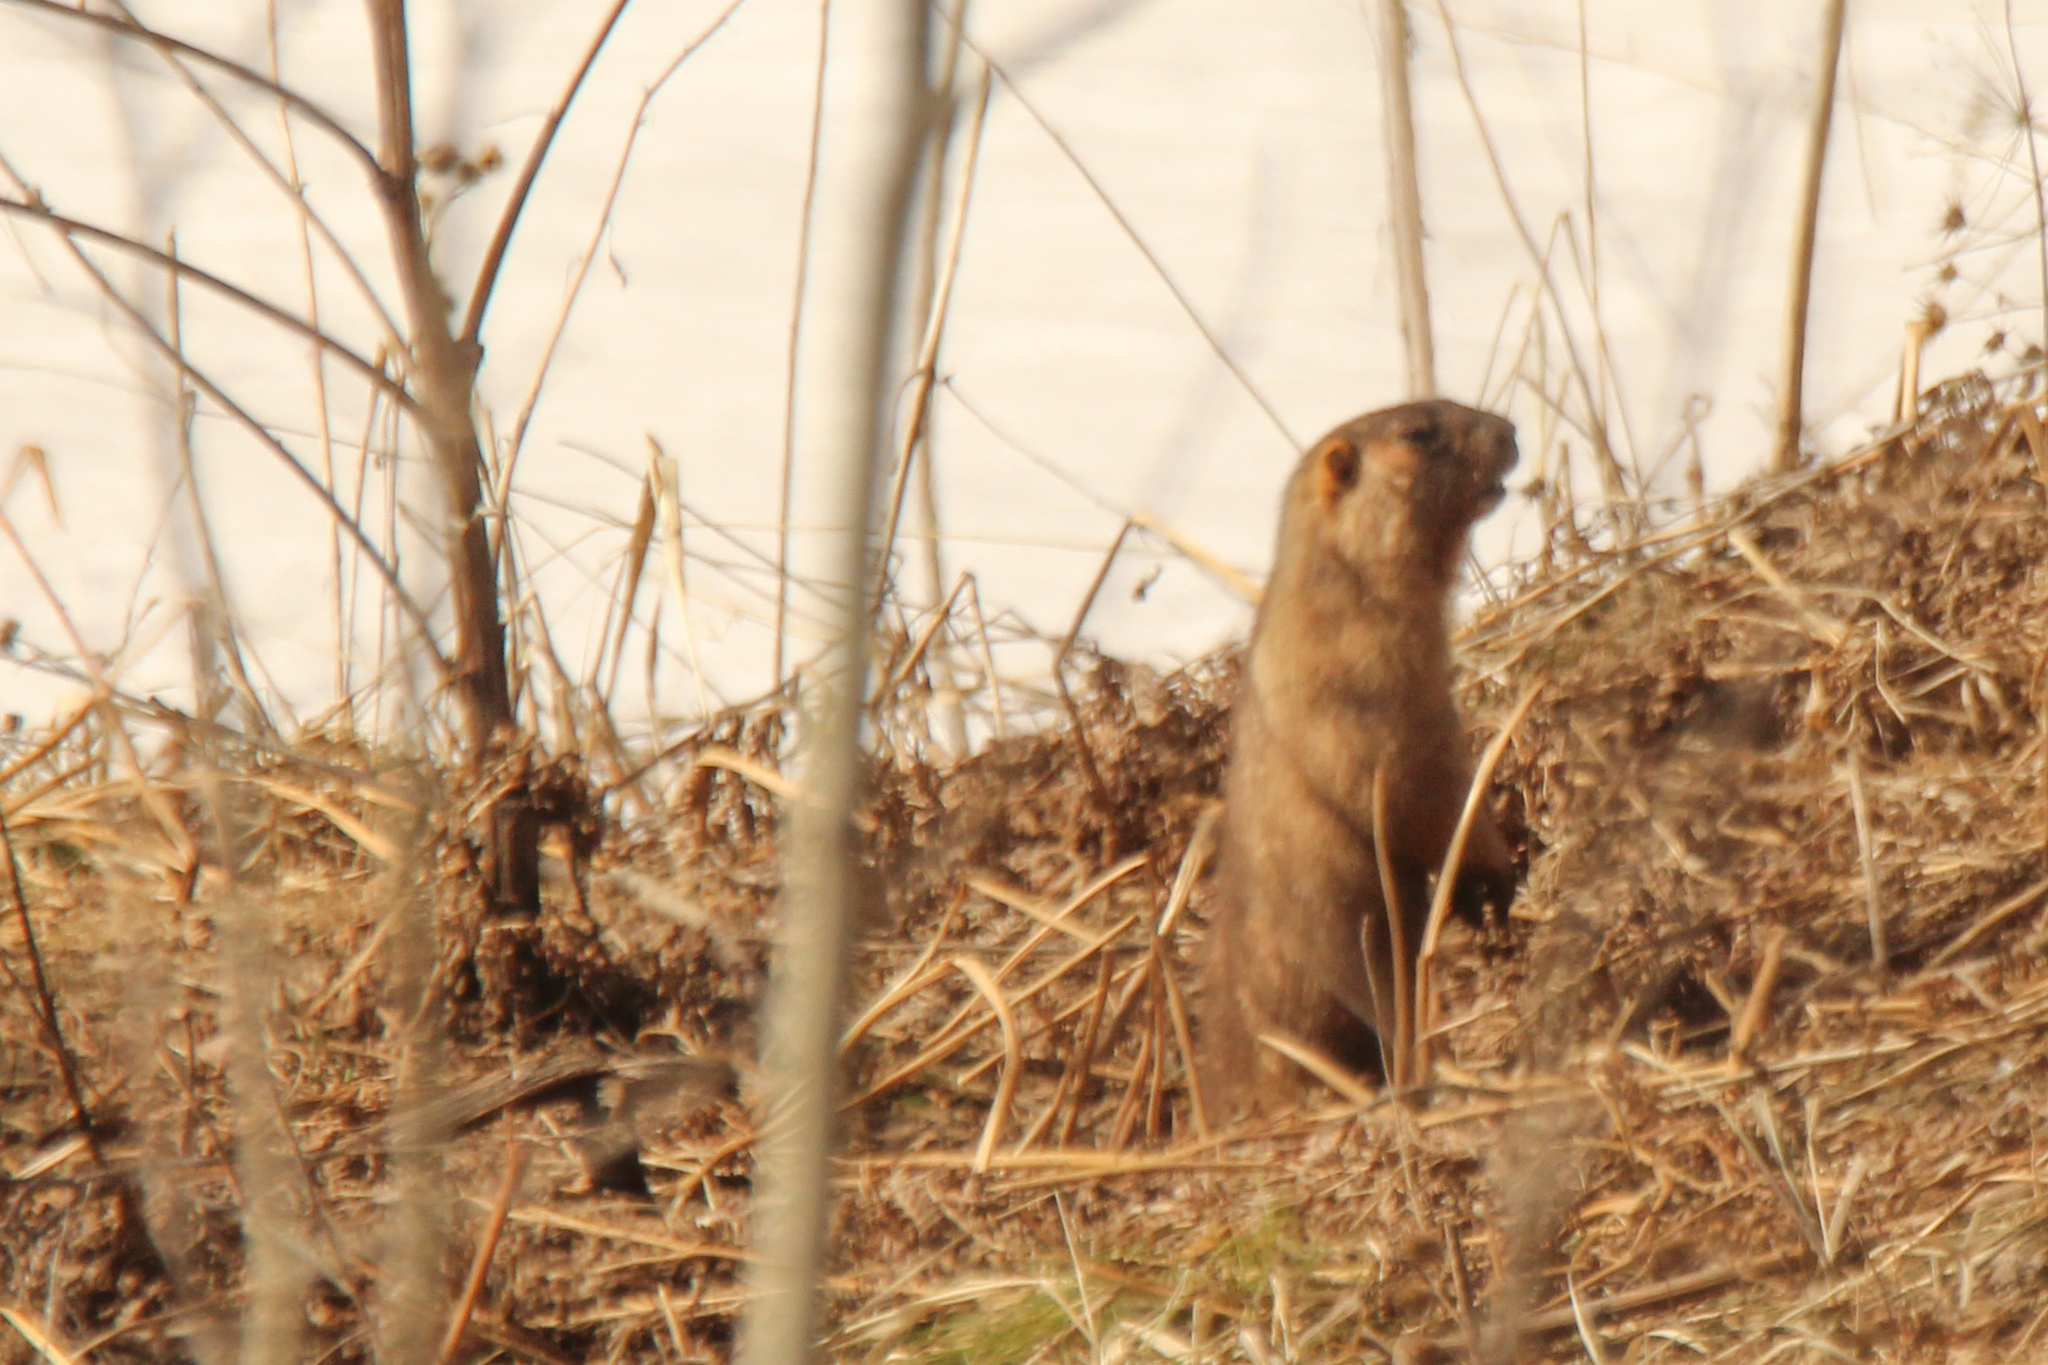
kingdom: Animalia
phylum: Chordata
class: Mammalia
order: Rodentia
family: Sciuridae
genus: Marmota
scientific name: Marmota kastschenkoi
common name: Forest steppe marmot
